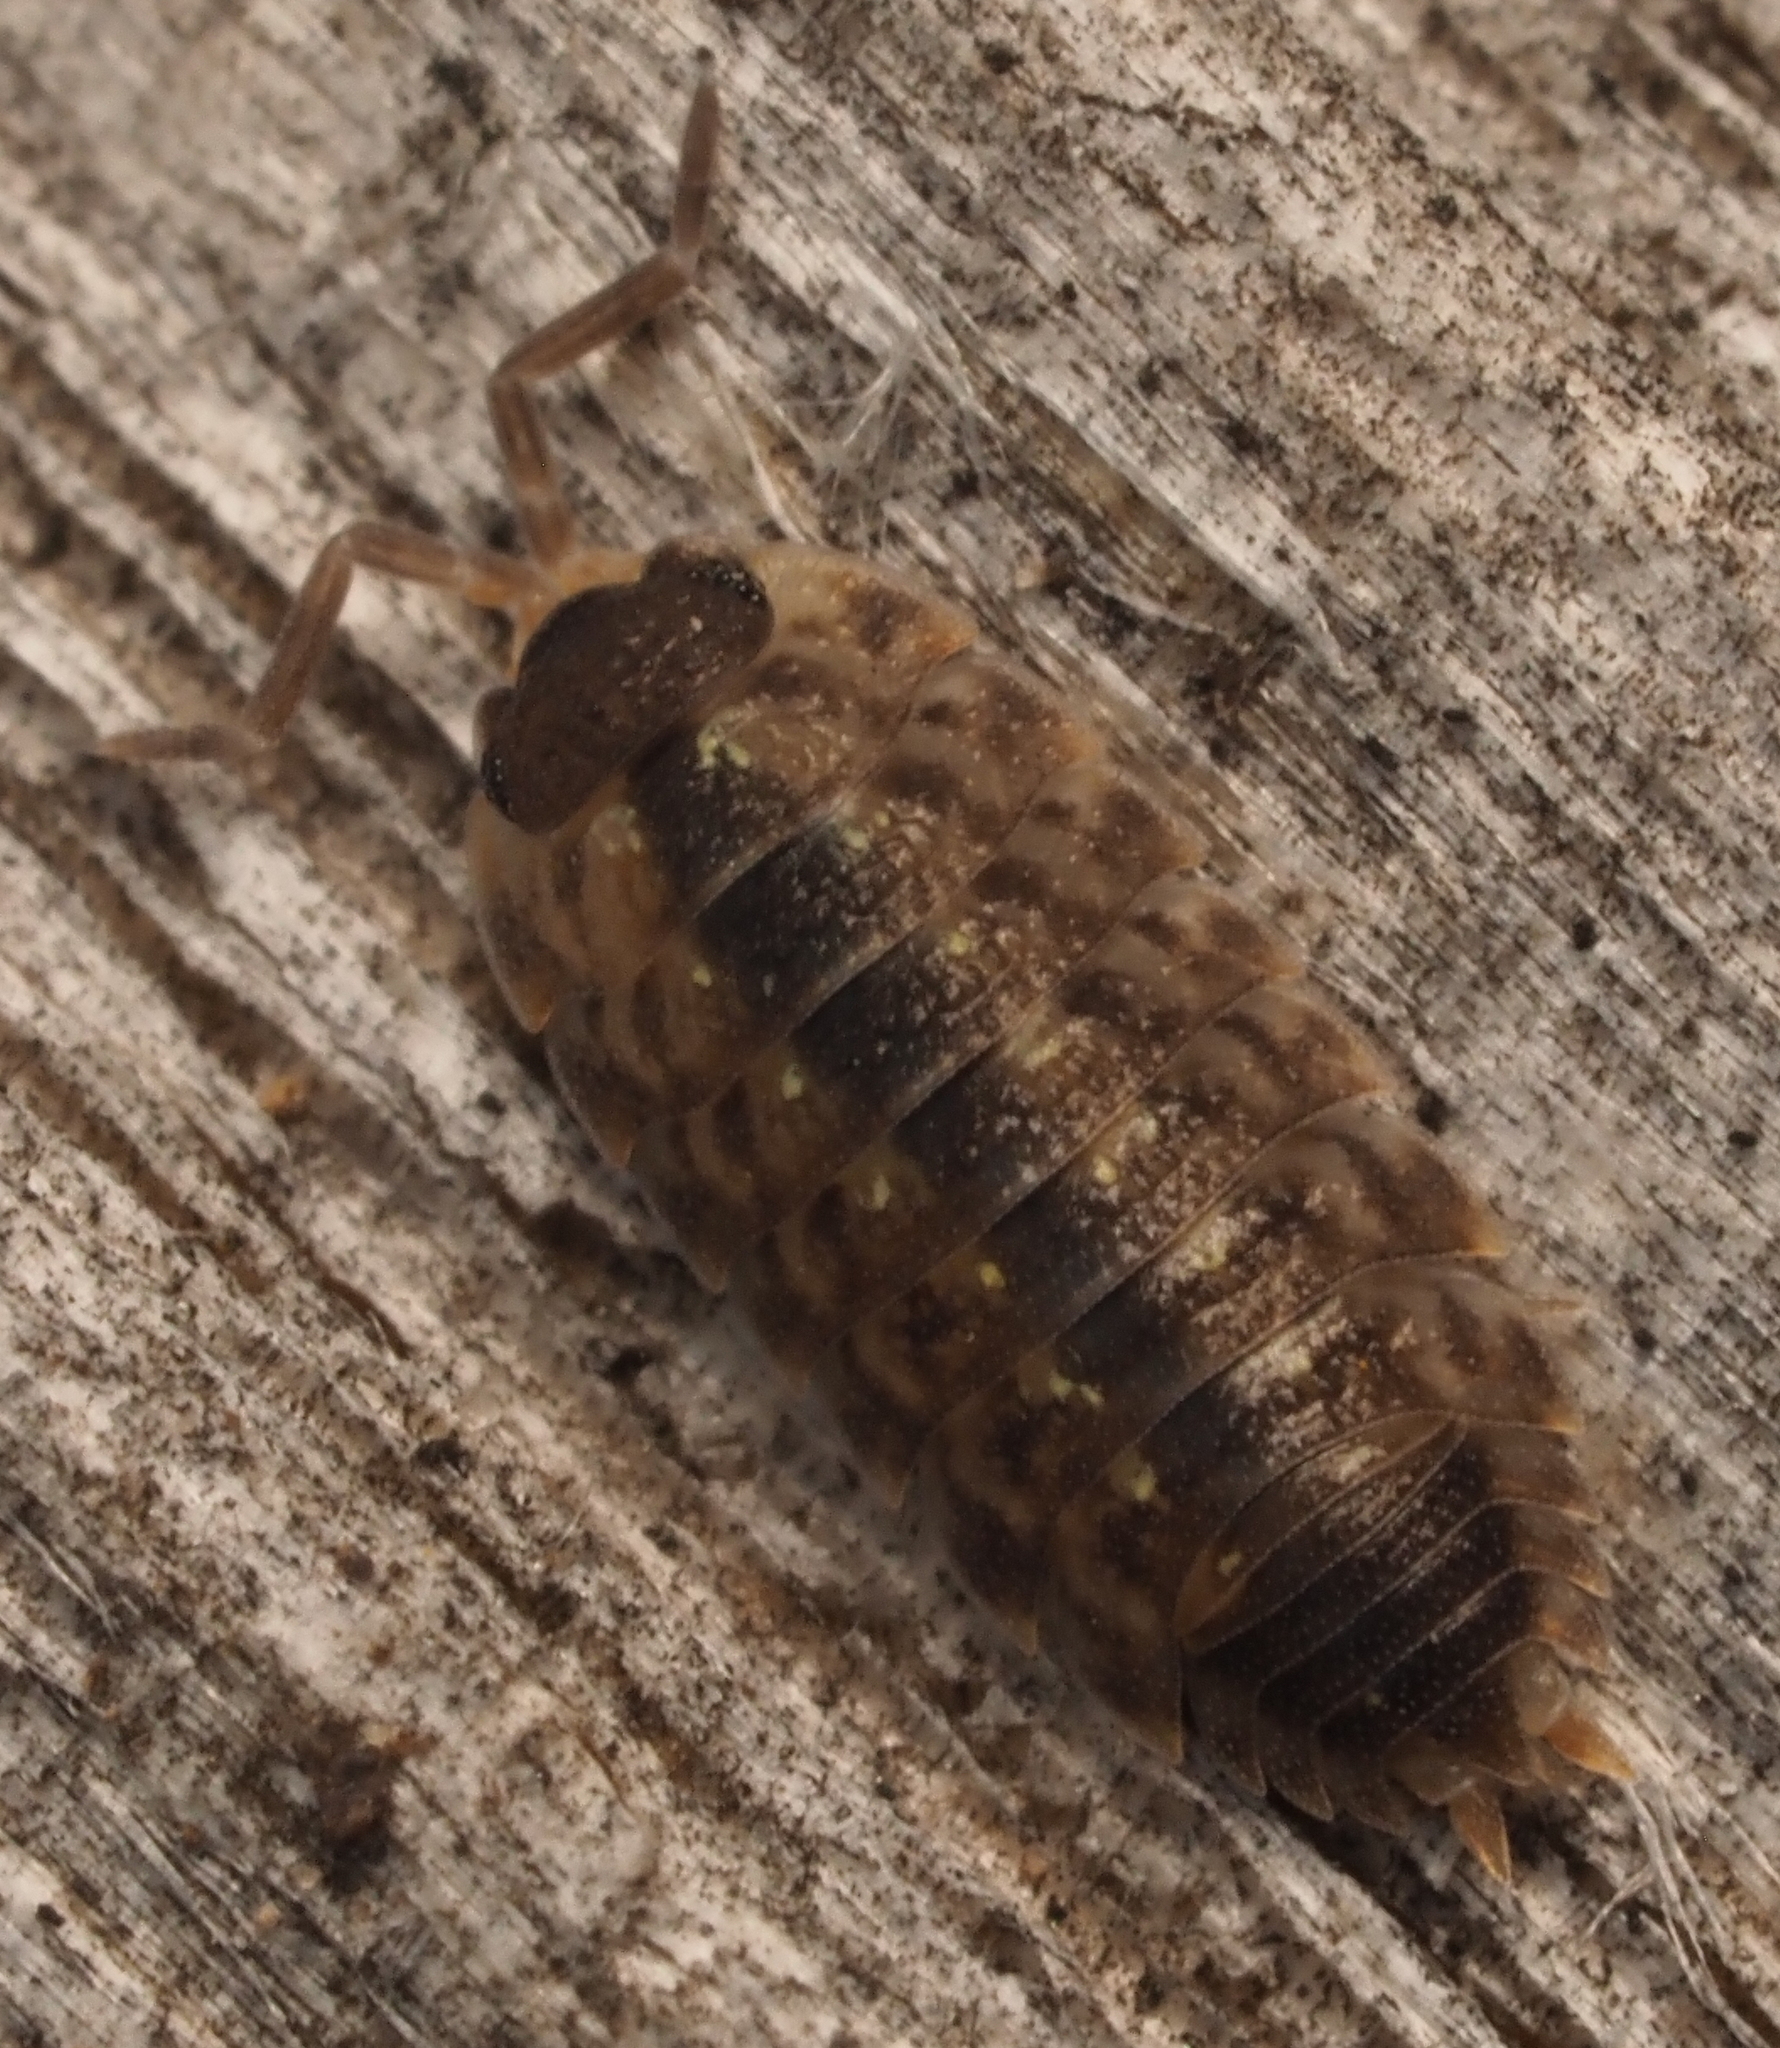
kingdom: Animalia
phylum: Arthropoda
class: Malacostraca
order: Isopoda
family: Porcellionidae
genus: Porcellio
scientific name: Porcellio spinicornis
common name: Painted woodlouse
